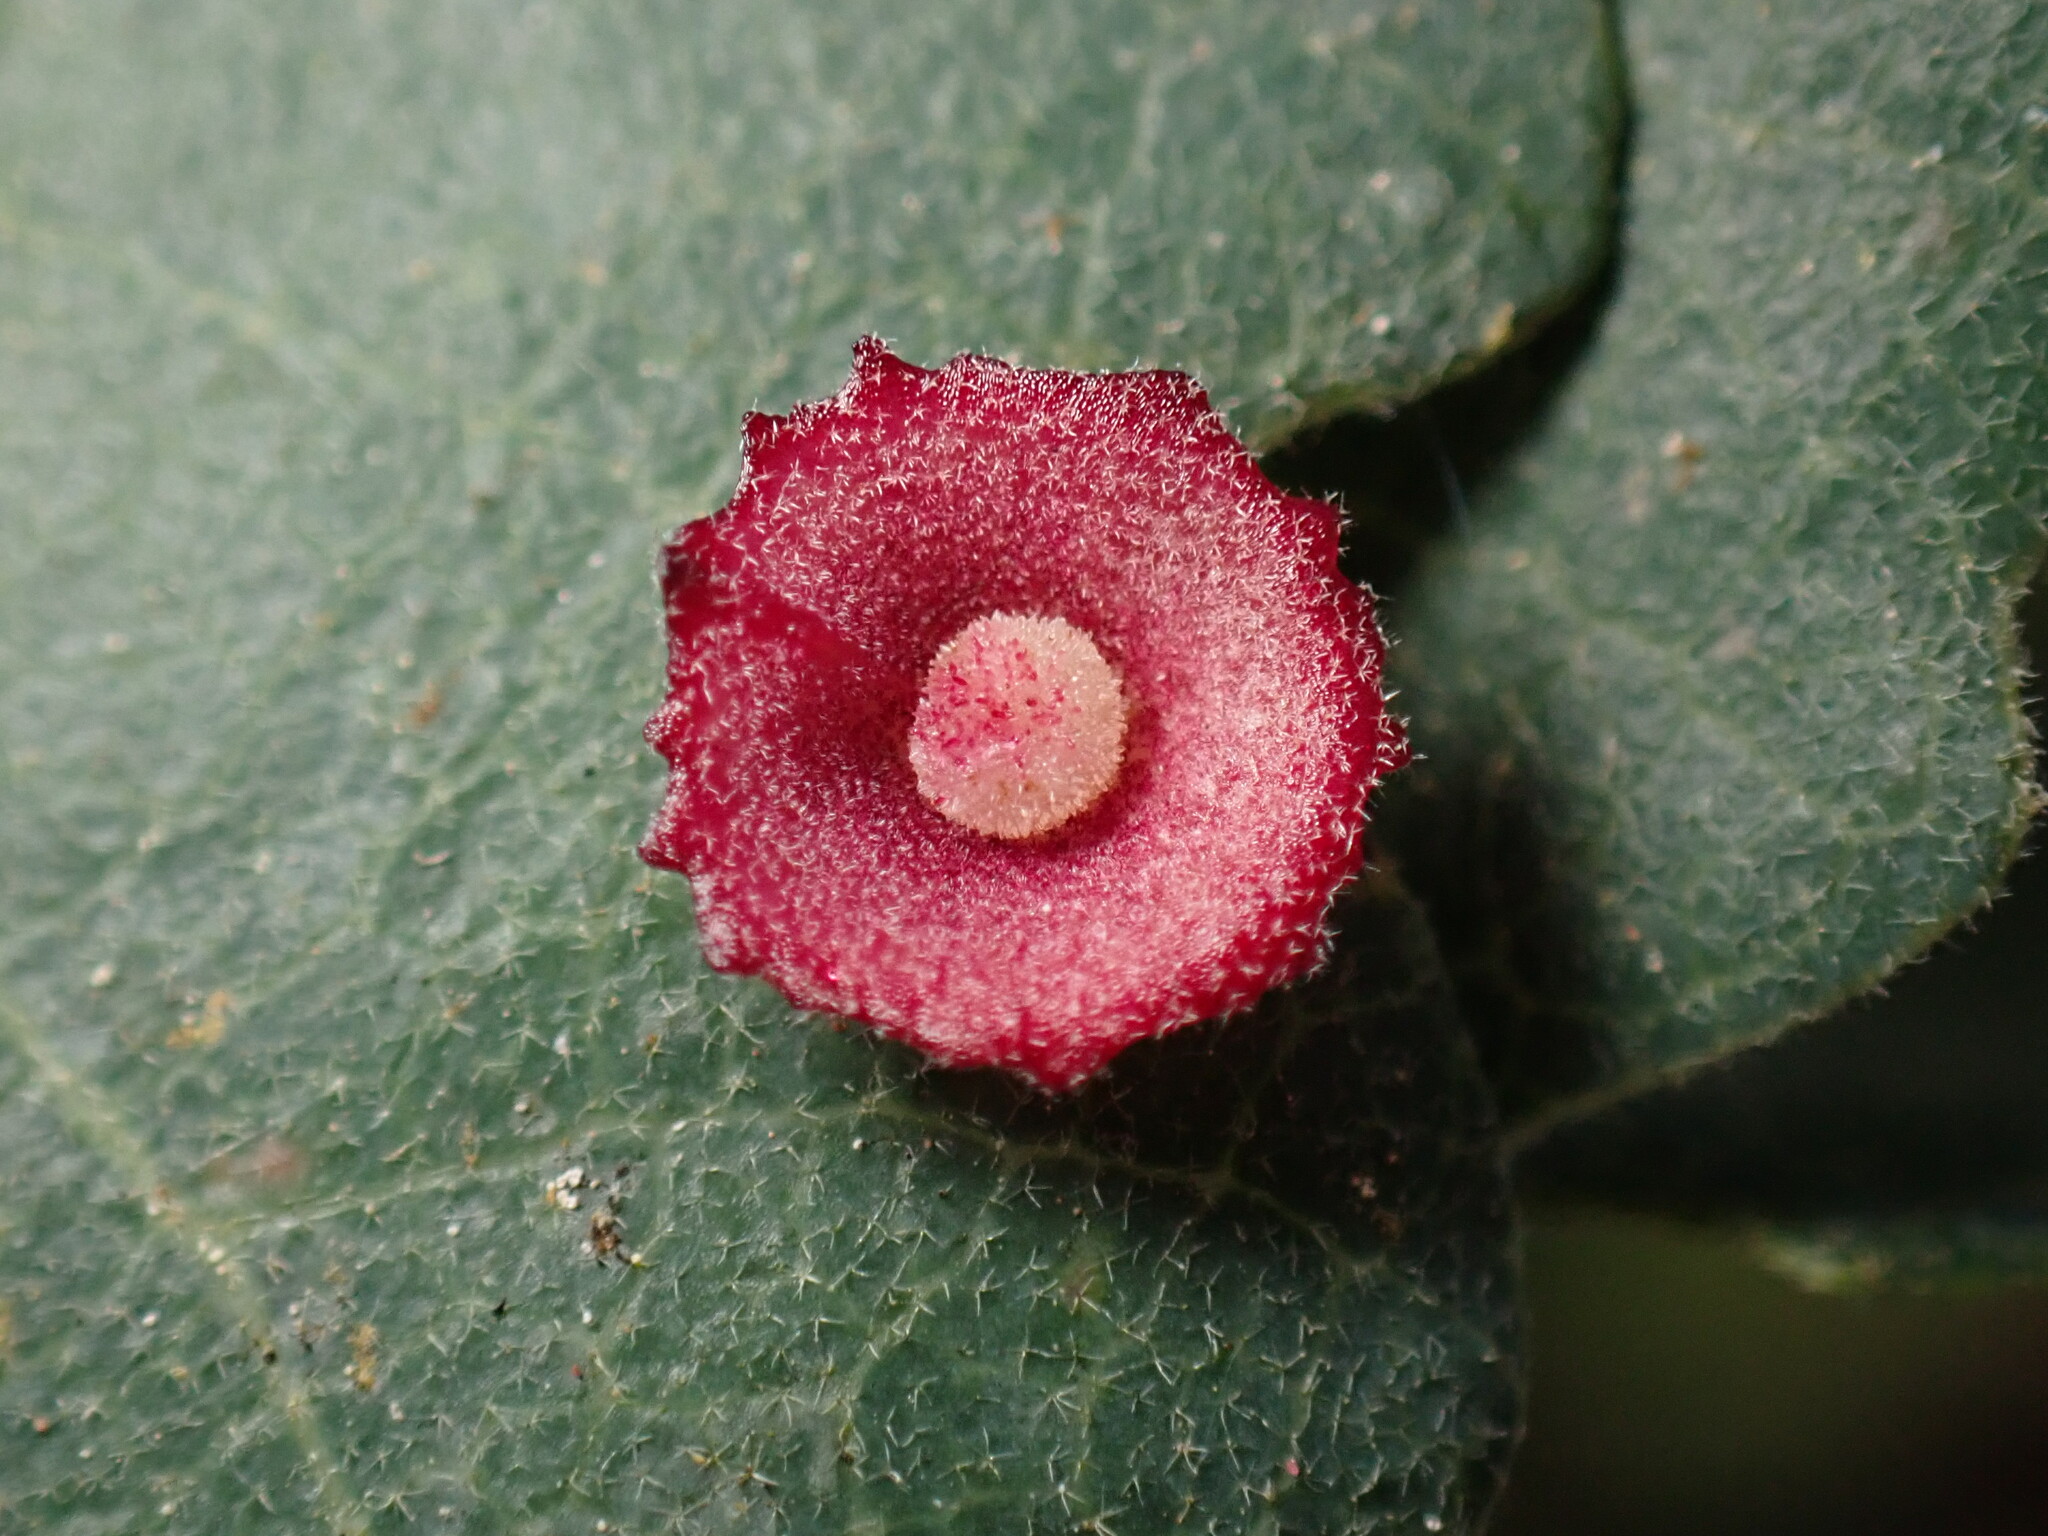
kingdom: Animalia
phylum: Arthropoda
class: Insecta
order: Hymenoptera
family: Cynipidae
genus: Andricus
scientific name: Andricus
